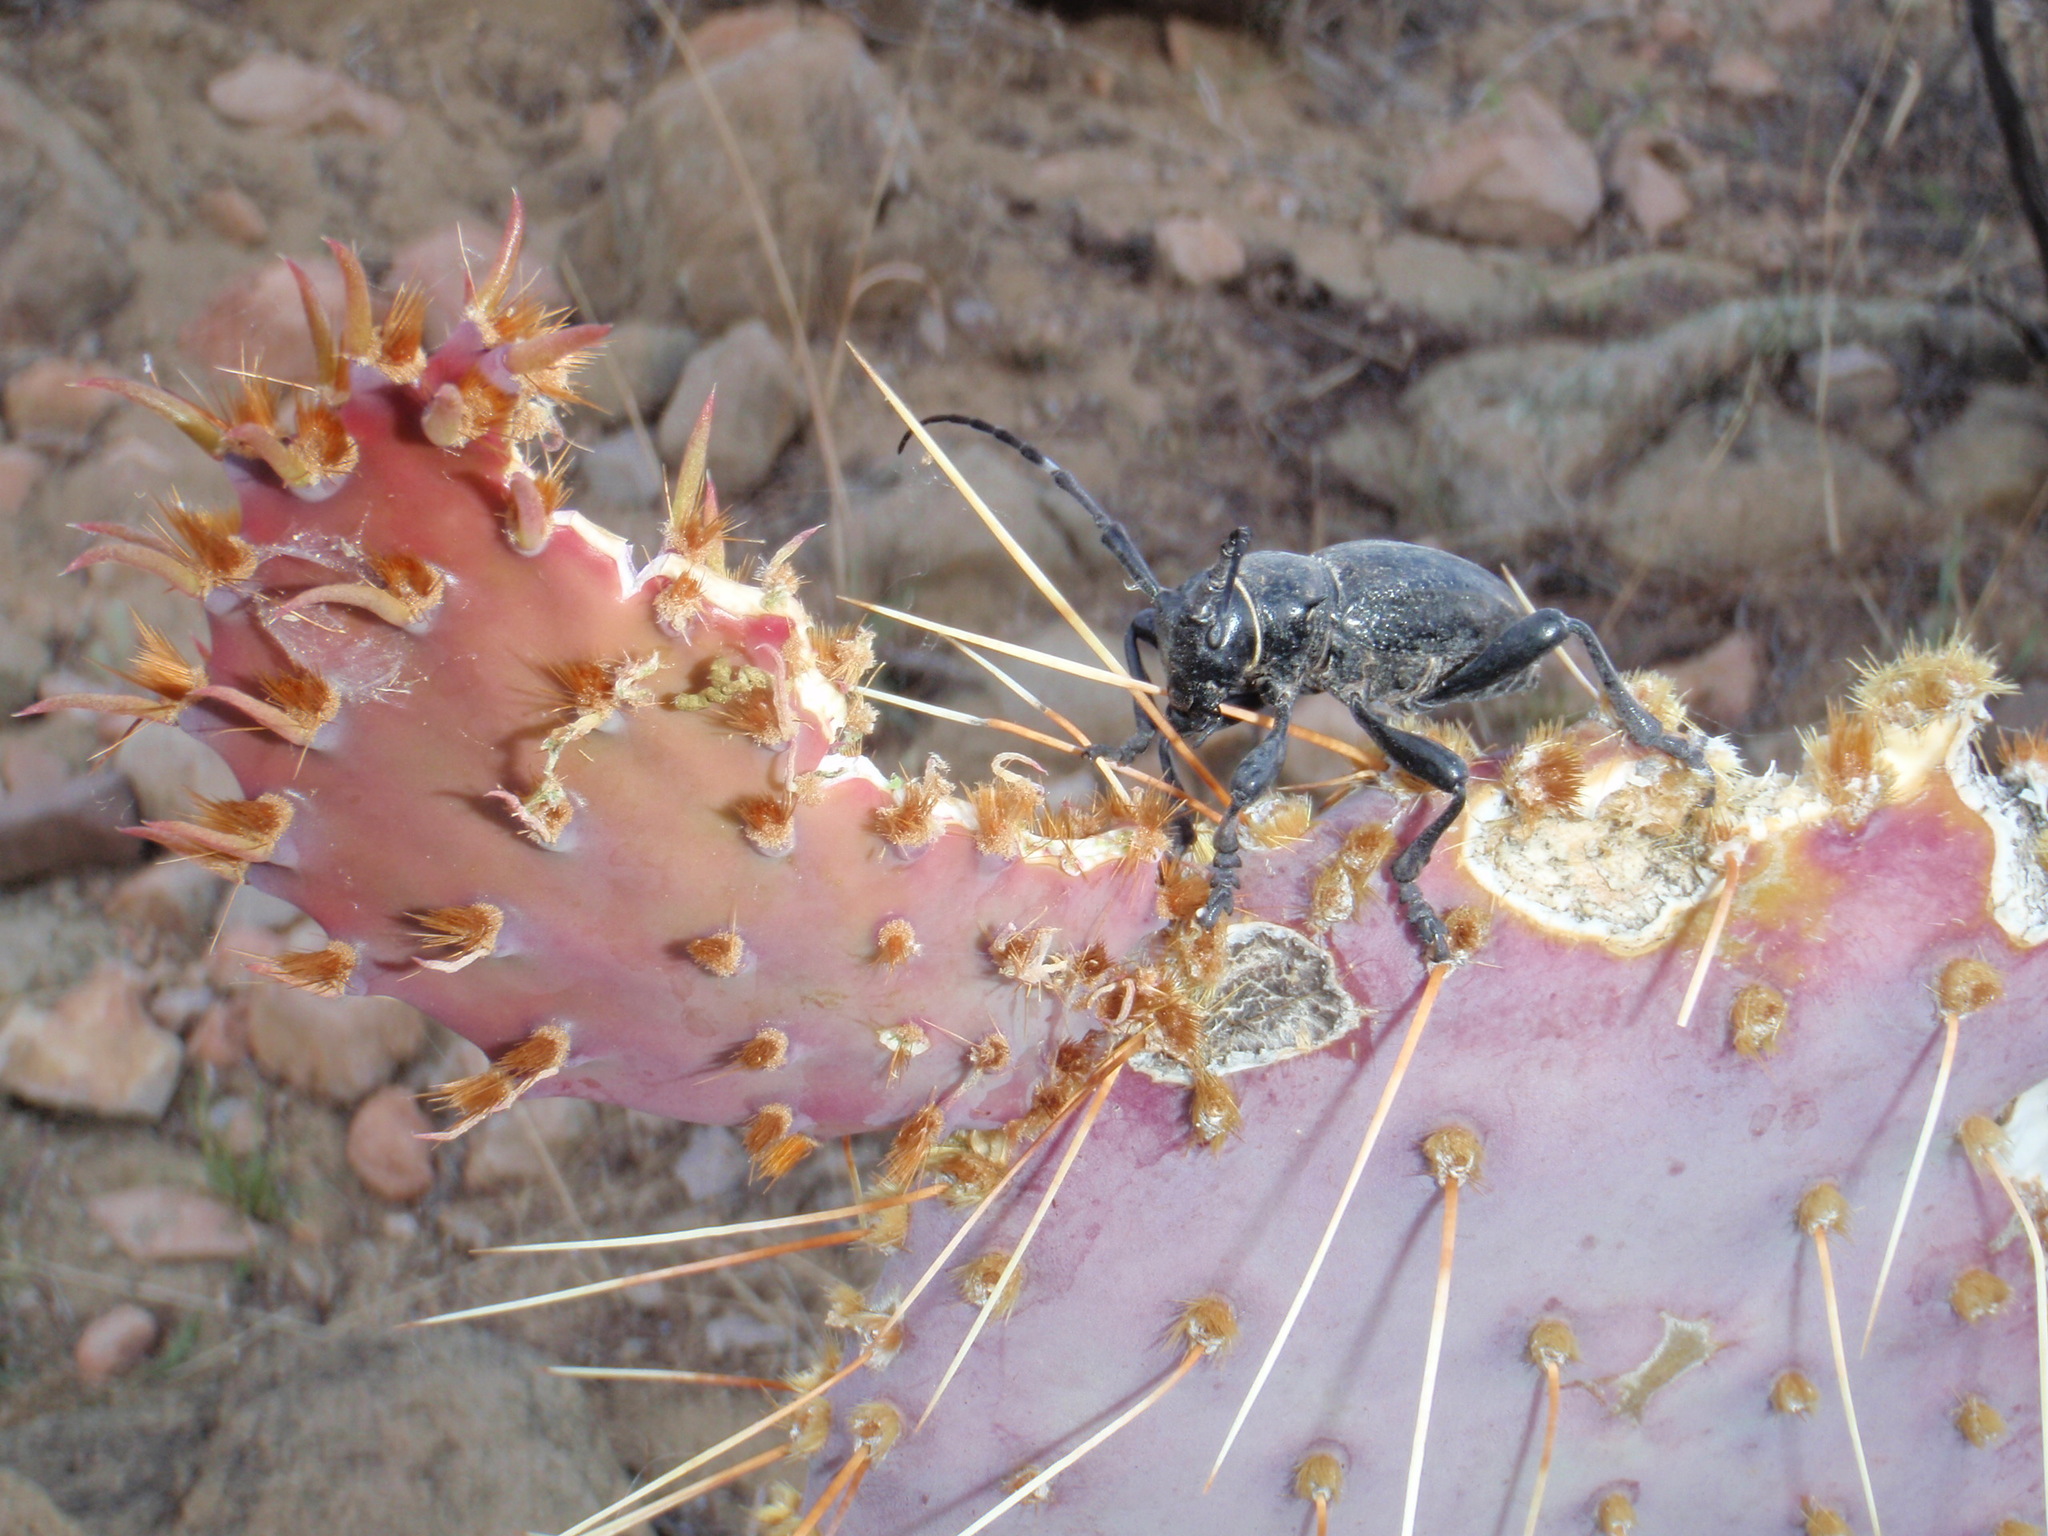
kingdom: Animalia
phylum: Arthropoda
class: Insecta
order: Coleoptera
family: Cerambycidae
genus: Moneilema
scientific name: Moneilema gigas
